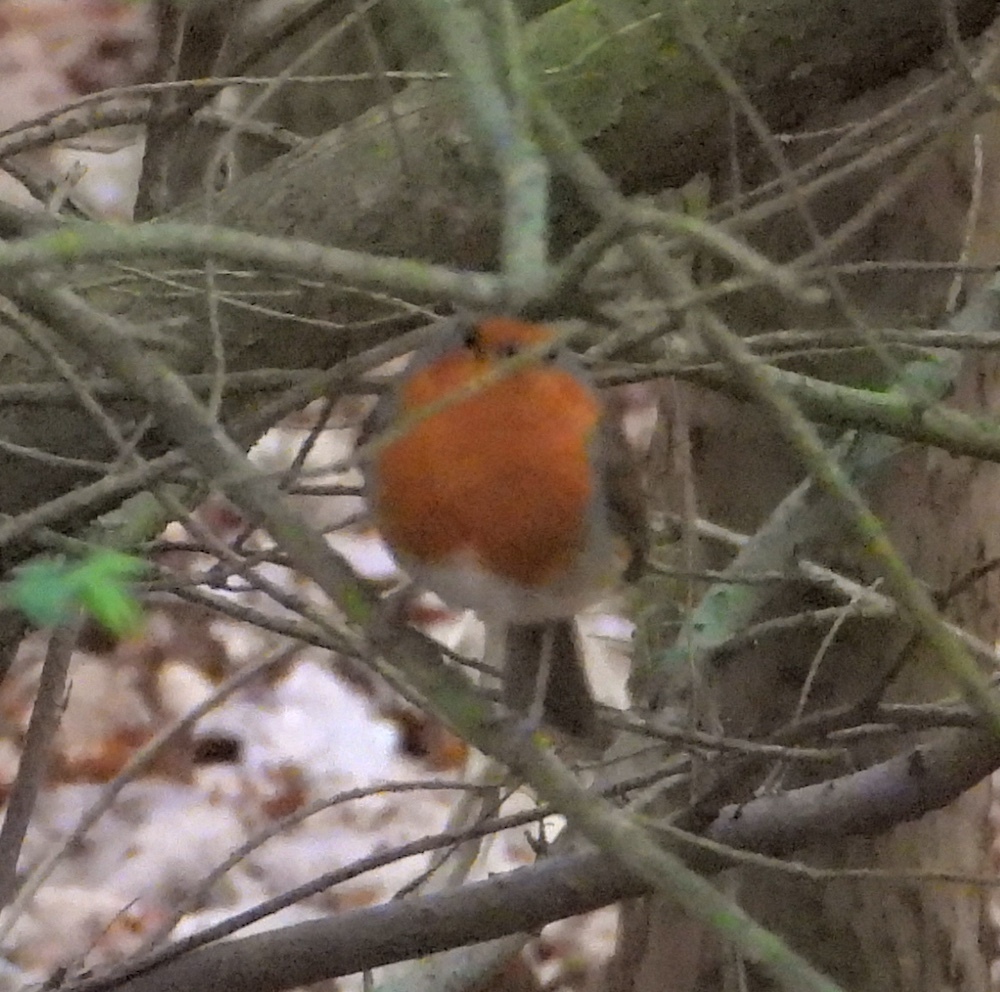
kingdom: Animalia
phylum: Chordata
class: Aves
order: Passeriformes
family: Muscicapidae
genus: Erithacus
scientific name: Erithacus rubecula
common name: European robin
